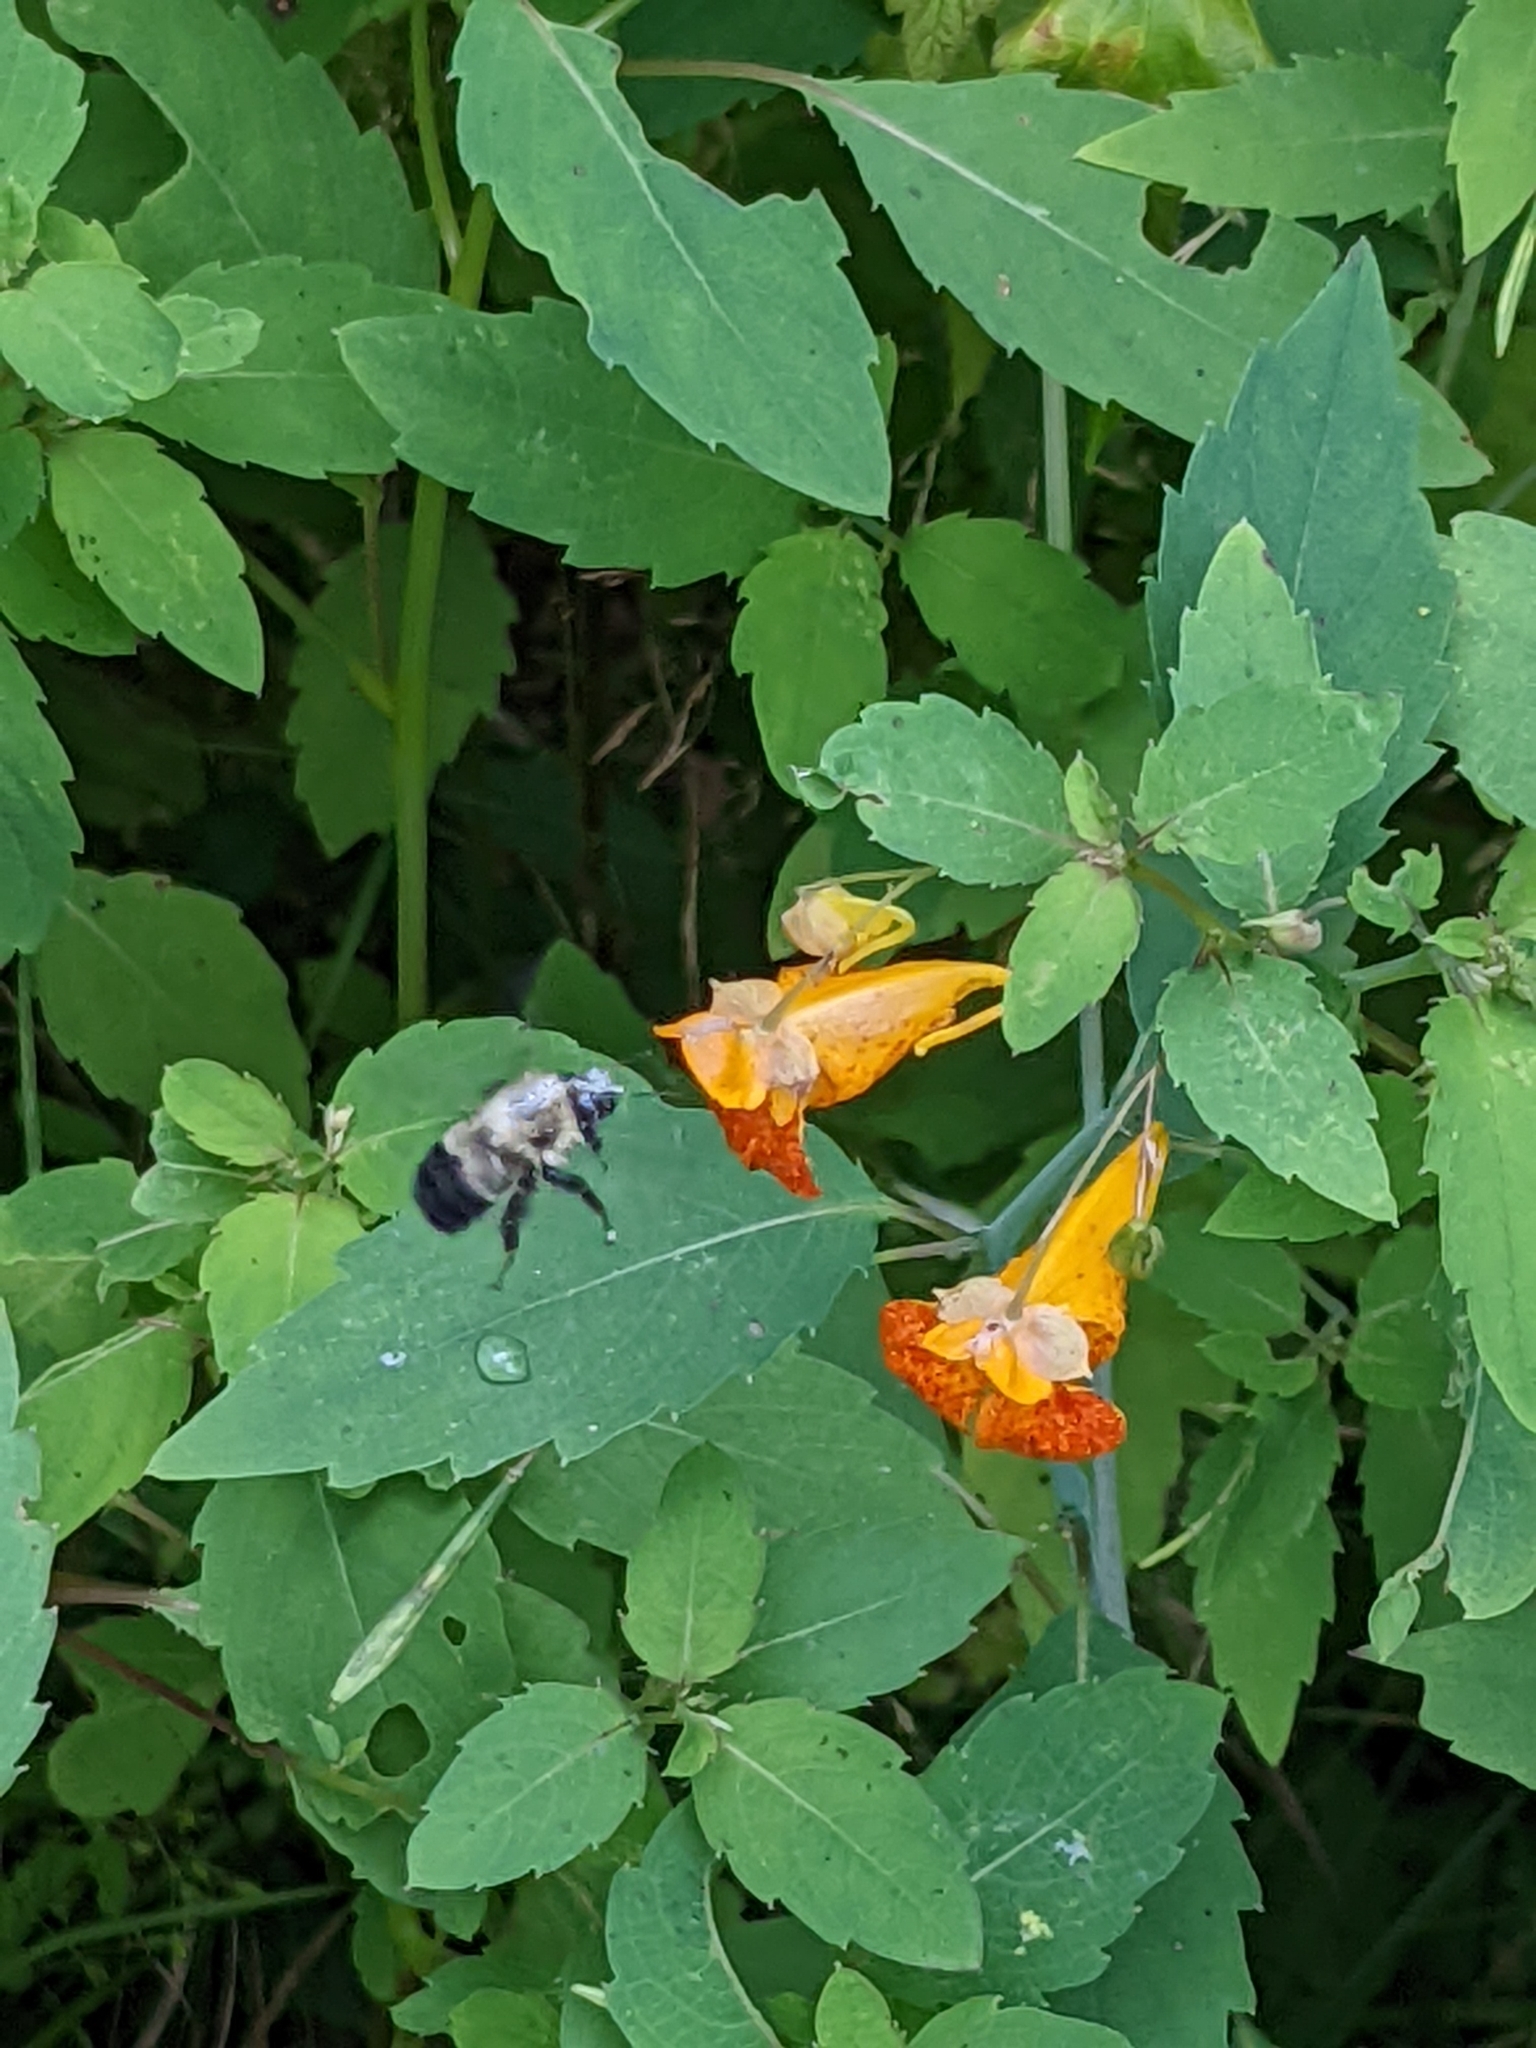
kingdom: Animalia
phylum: Arthropoda
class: Insecta
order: Hymenoptera
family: Apidae
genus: Pyrobombus
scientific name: Pyrobombus
